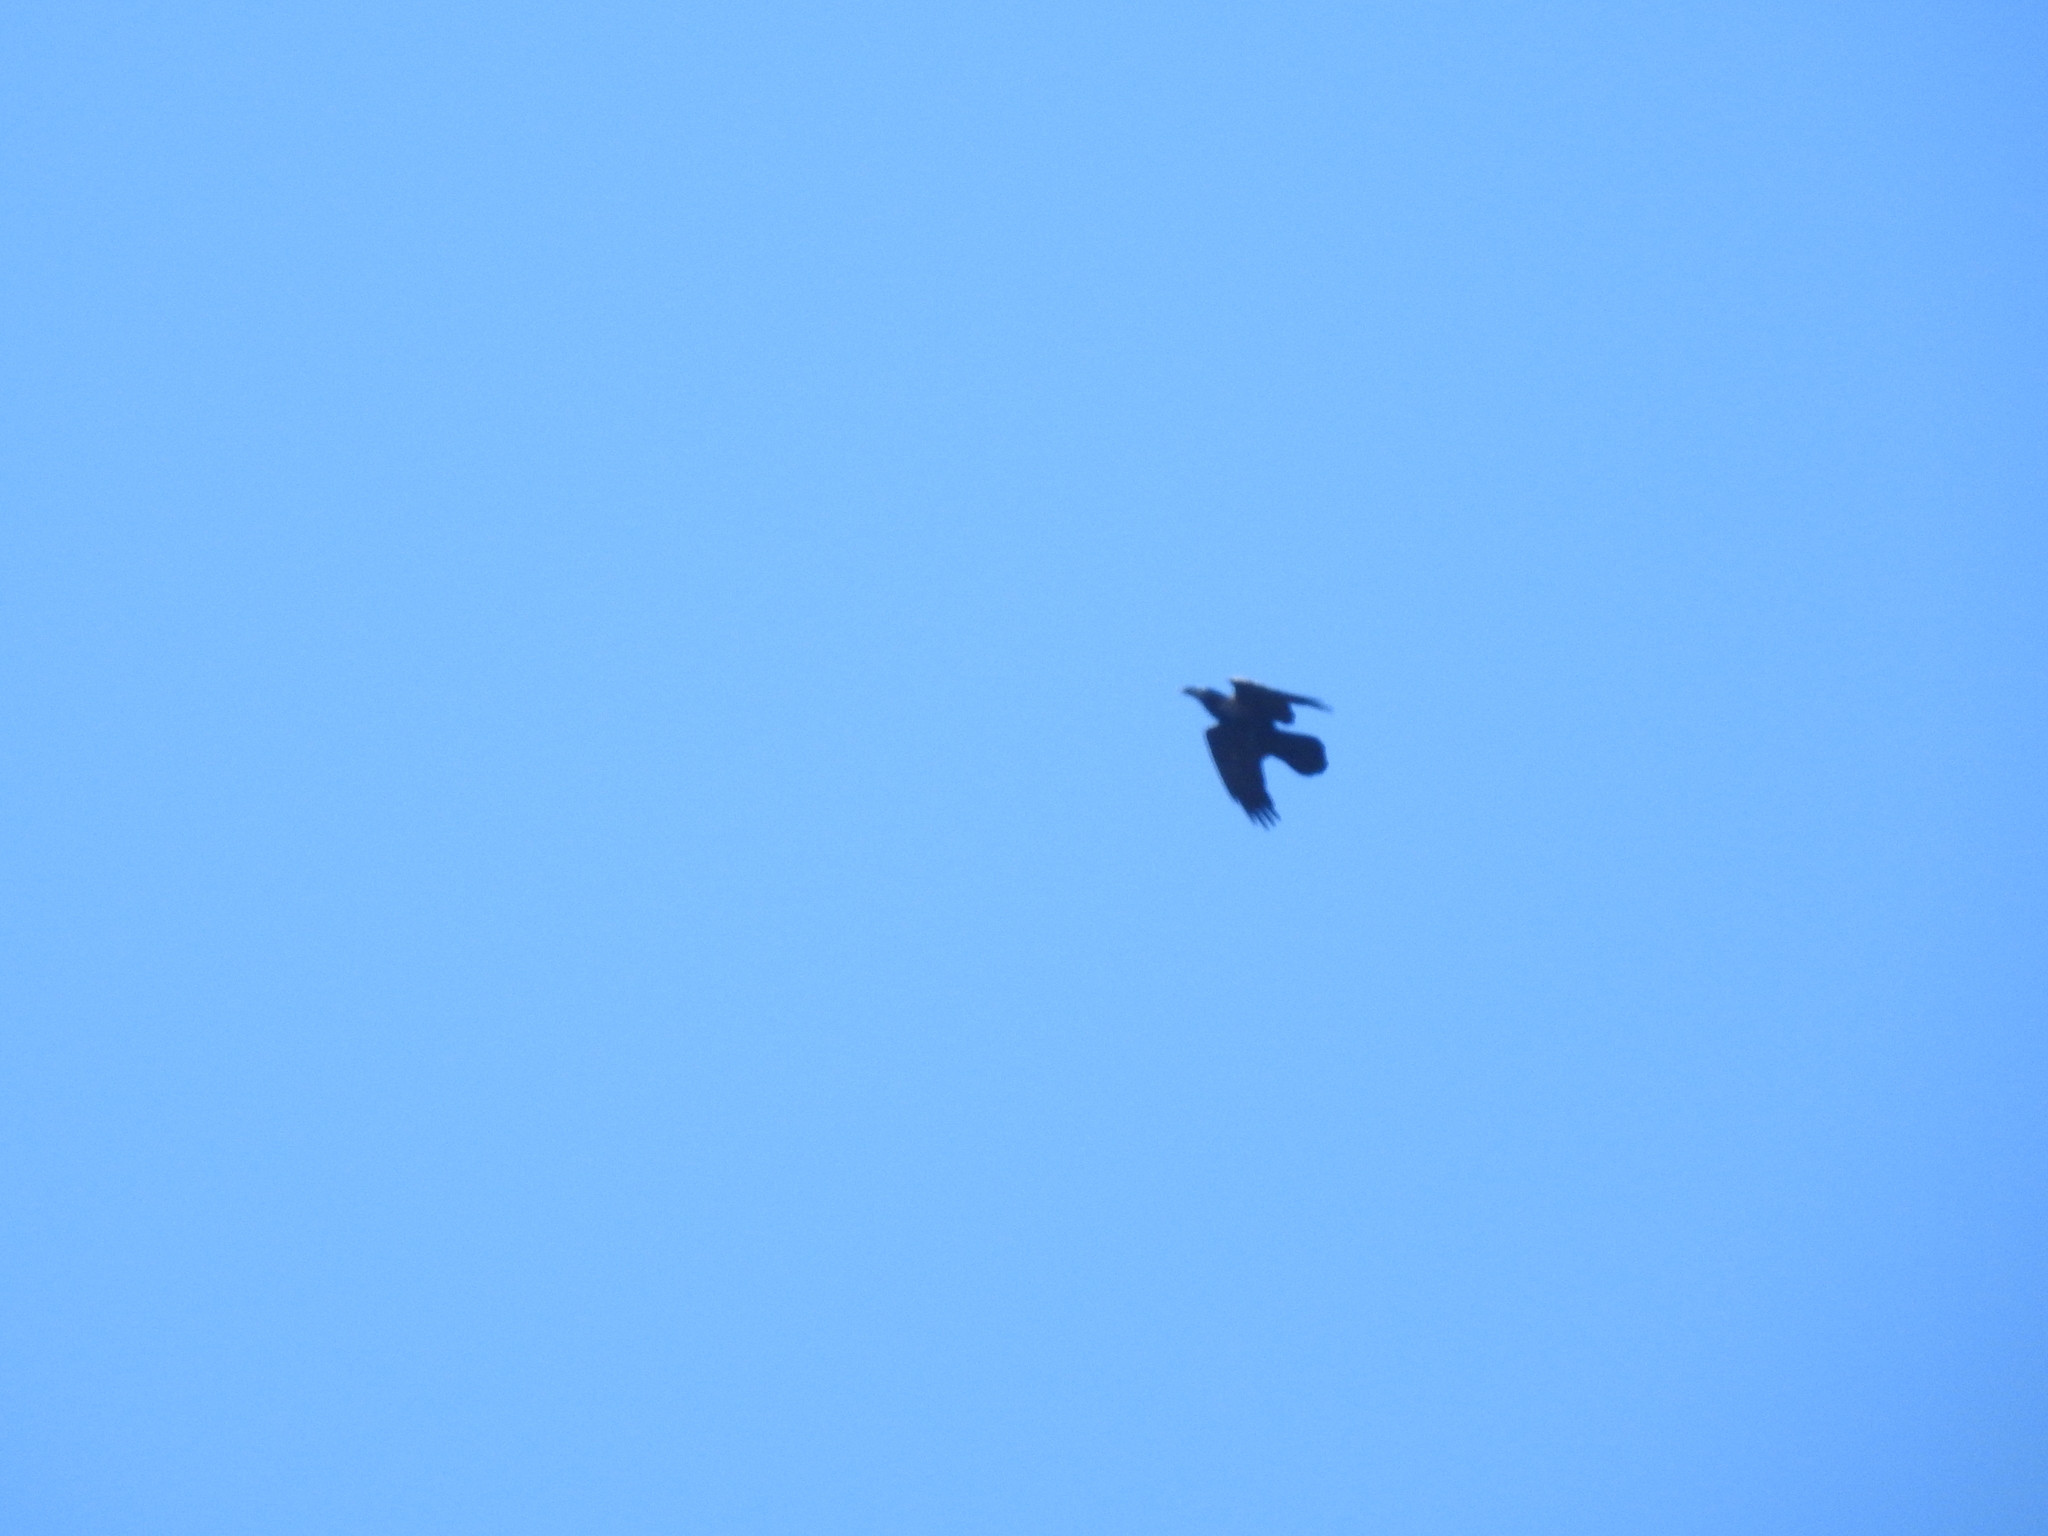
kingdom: Animalia
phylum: Chordata
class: Aves
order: Passeriformes
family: Corvidae
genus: Corvus
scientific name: Corvus corax
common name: Common raven
